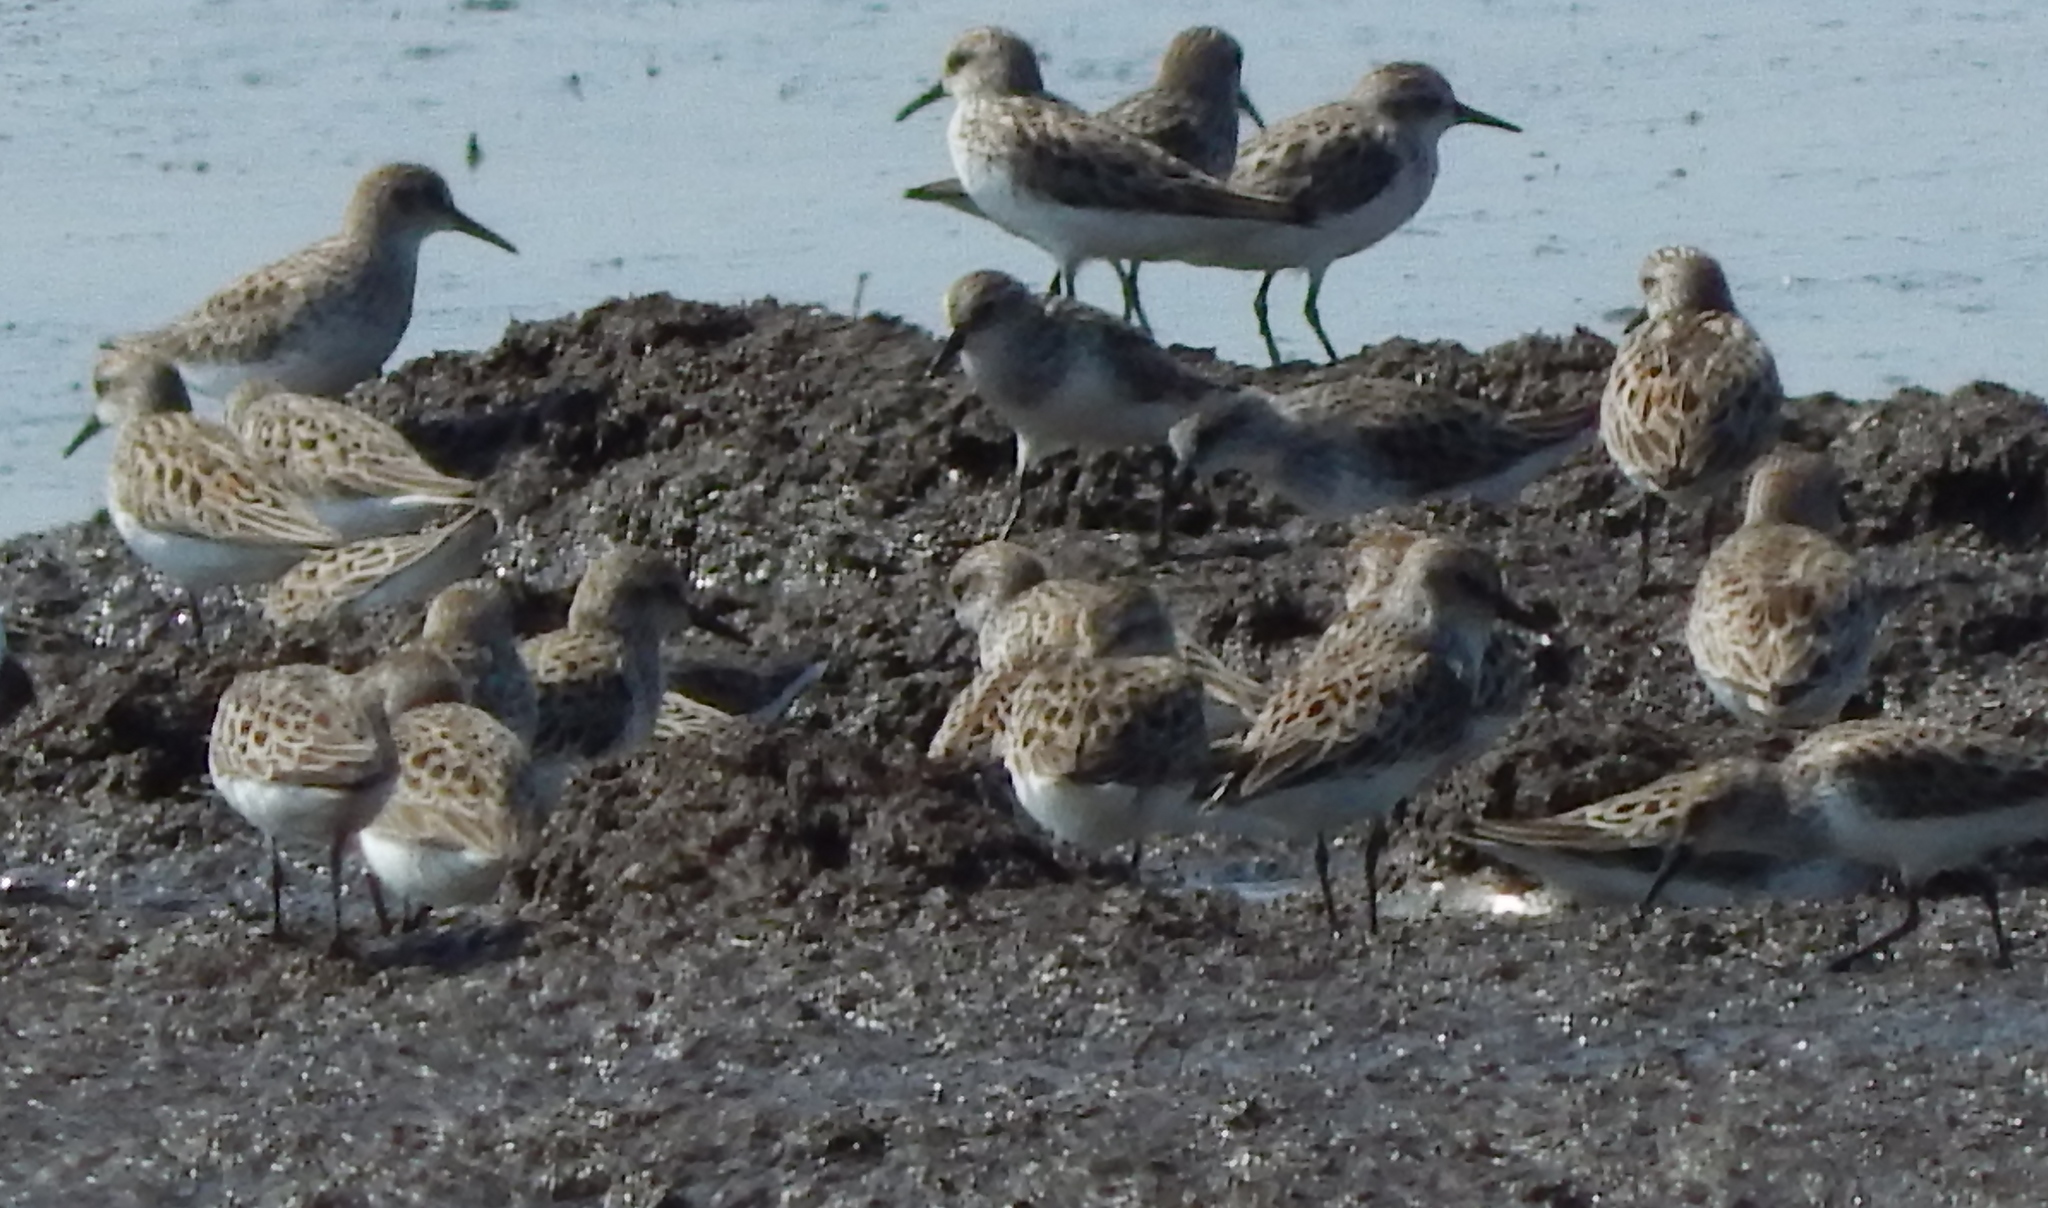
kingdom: Animalia
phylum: Chordata
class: Aves
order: Charadriiformes
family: Scolopacidae
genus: Calidris
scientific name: Calidris pusilla
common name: Semipalmated sandpiper
